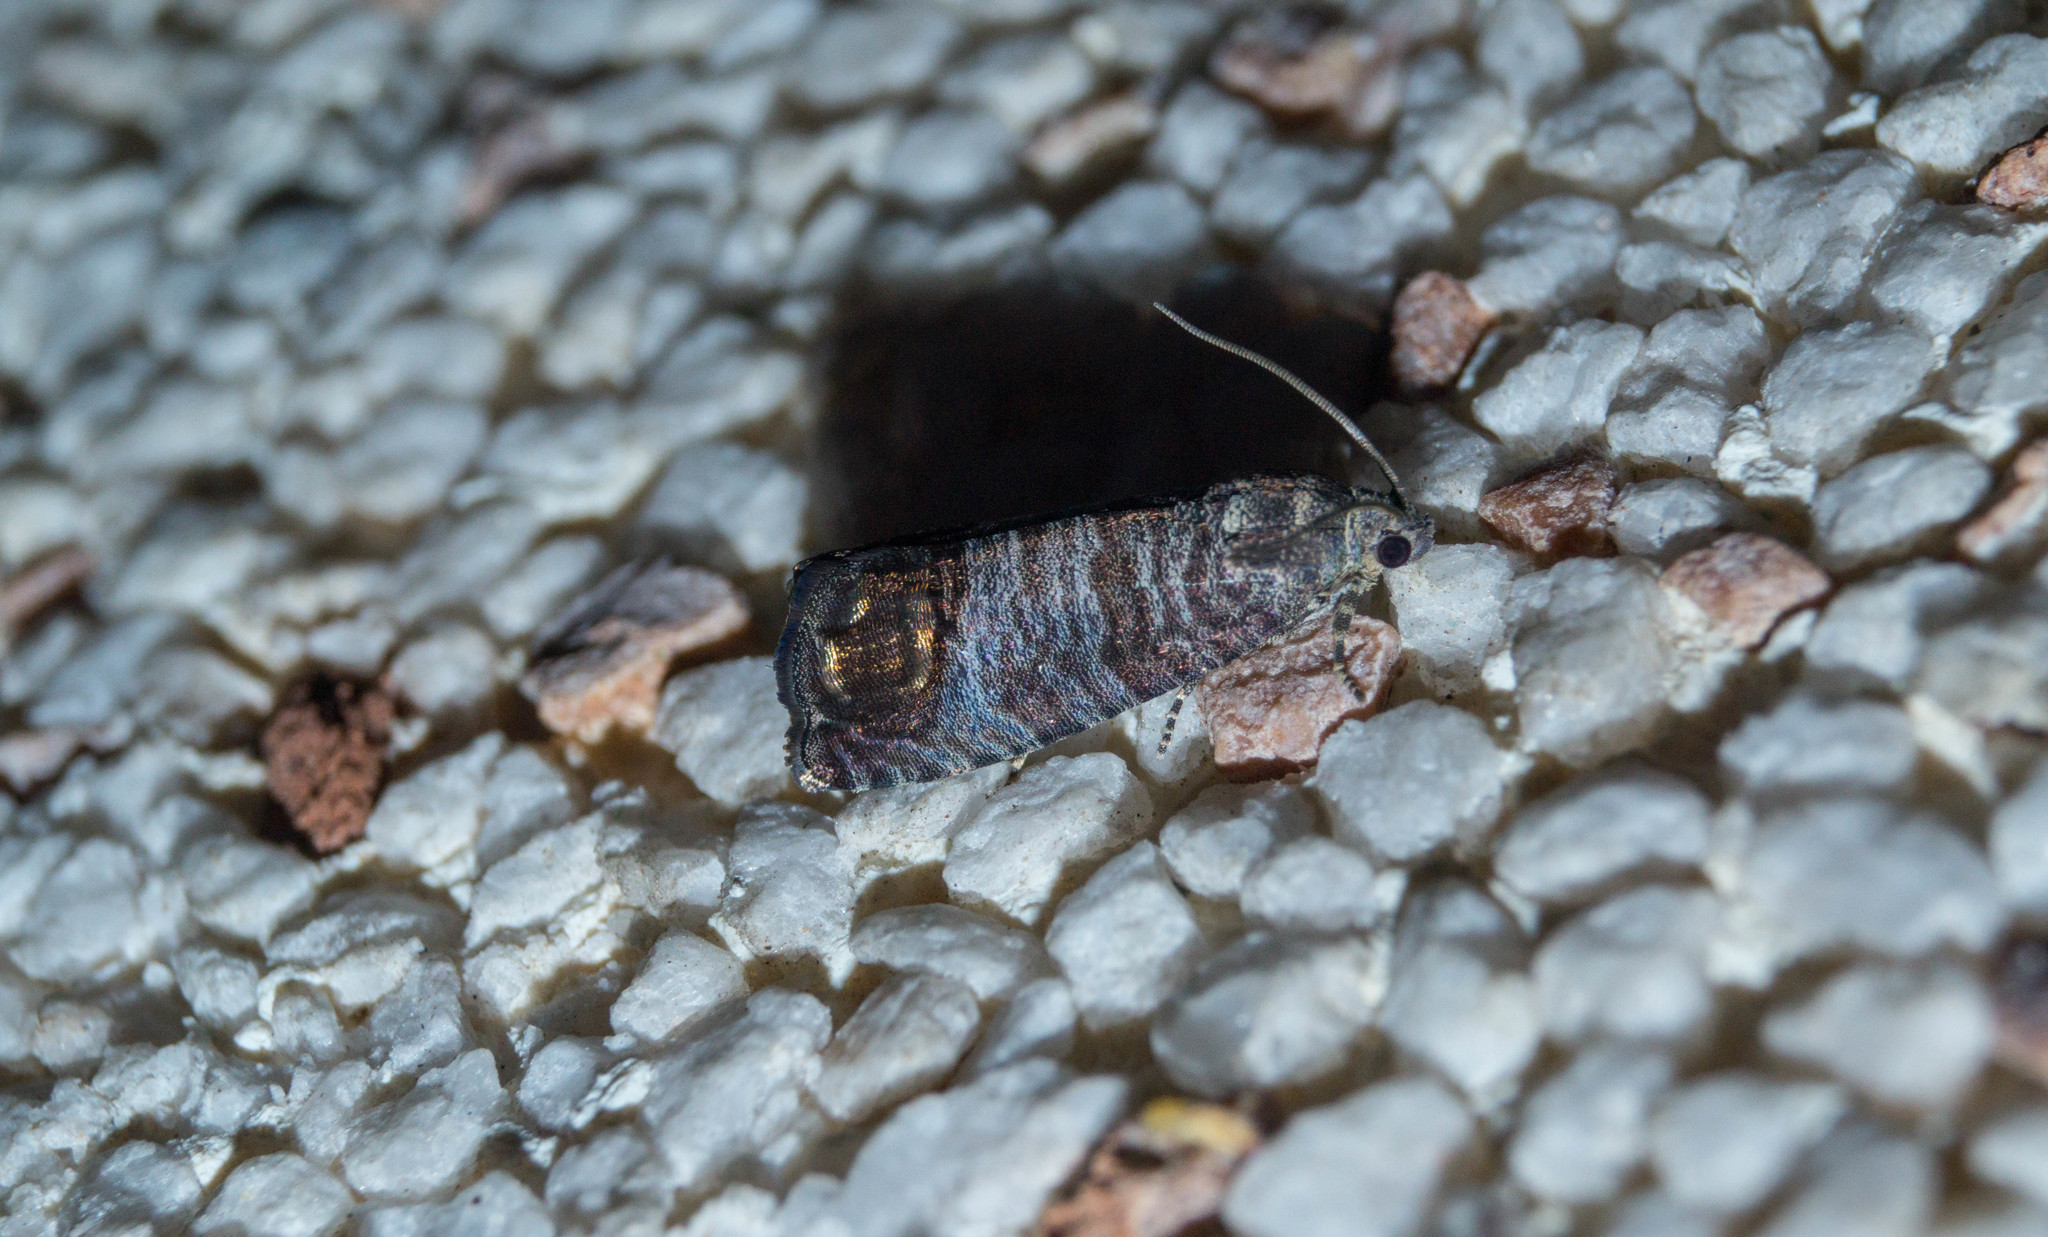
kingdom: Animalia
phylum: Arthropoda
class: Insecta
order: Lepidoptera
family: Tortricidae
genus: Cydia
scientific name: Cydia pomonella
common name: Codling moth
